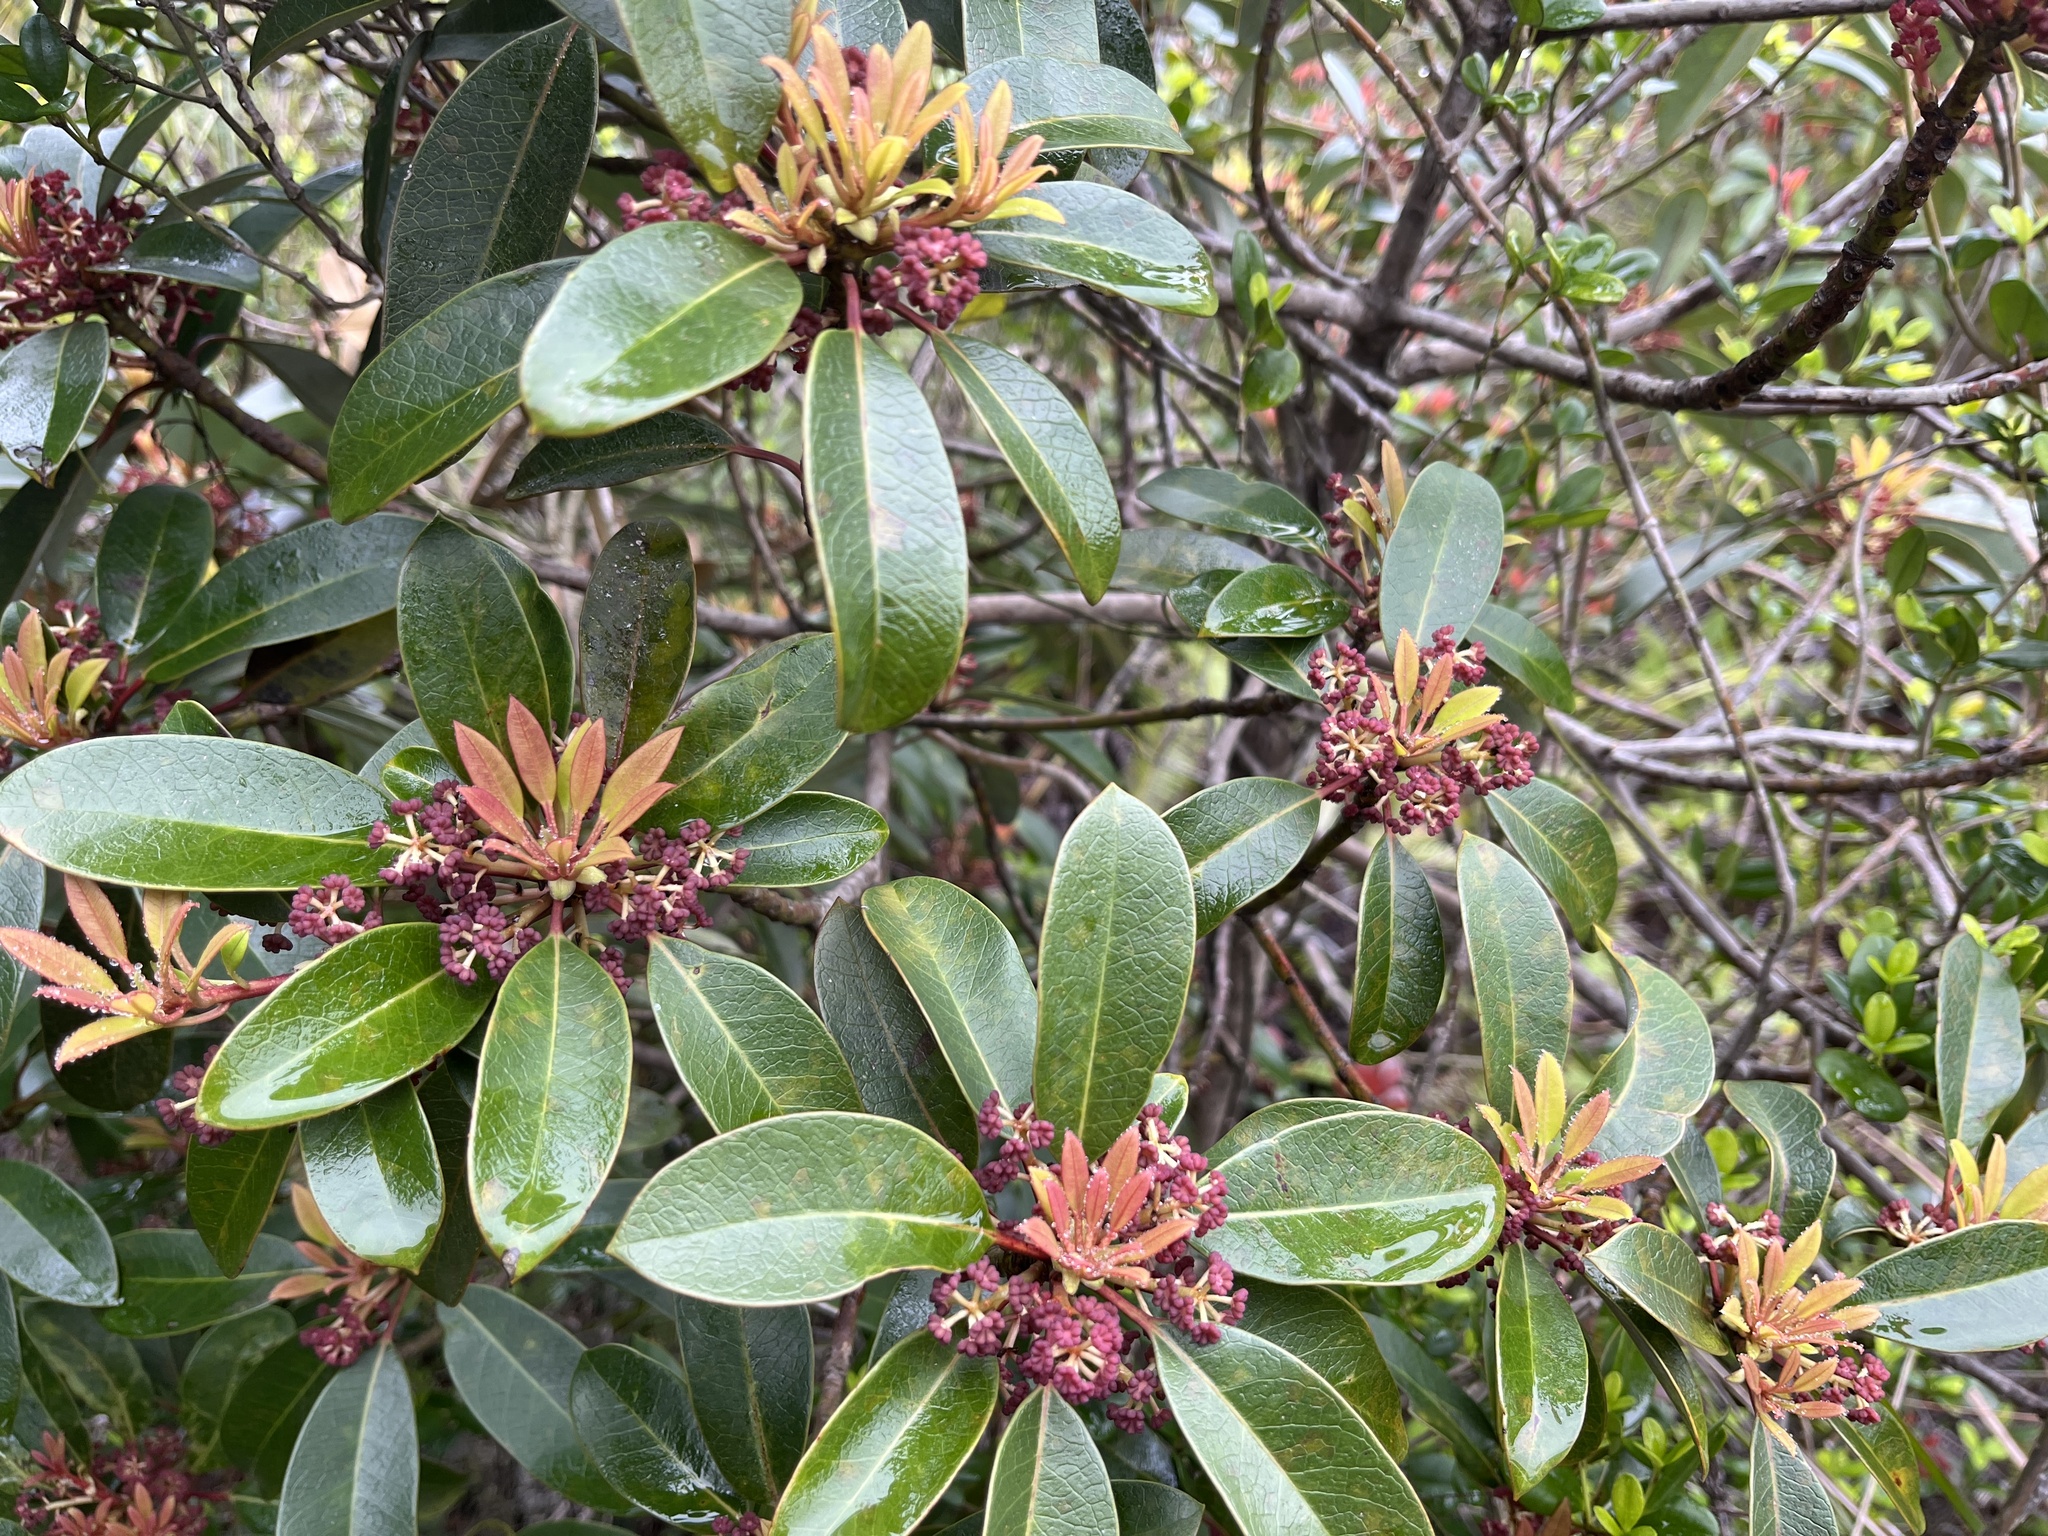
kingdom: Plantae
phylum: Tracheophyta
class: Magnoliopsida
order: Saxifragales
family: Daphniphyllaceae
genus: Daphniphyllum
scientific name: Daphniphyllum pentandrum
